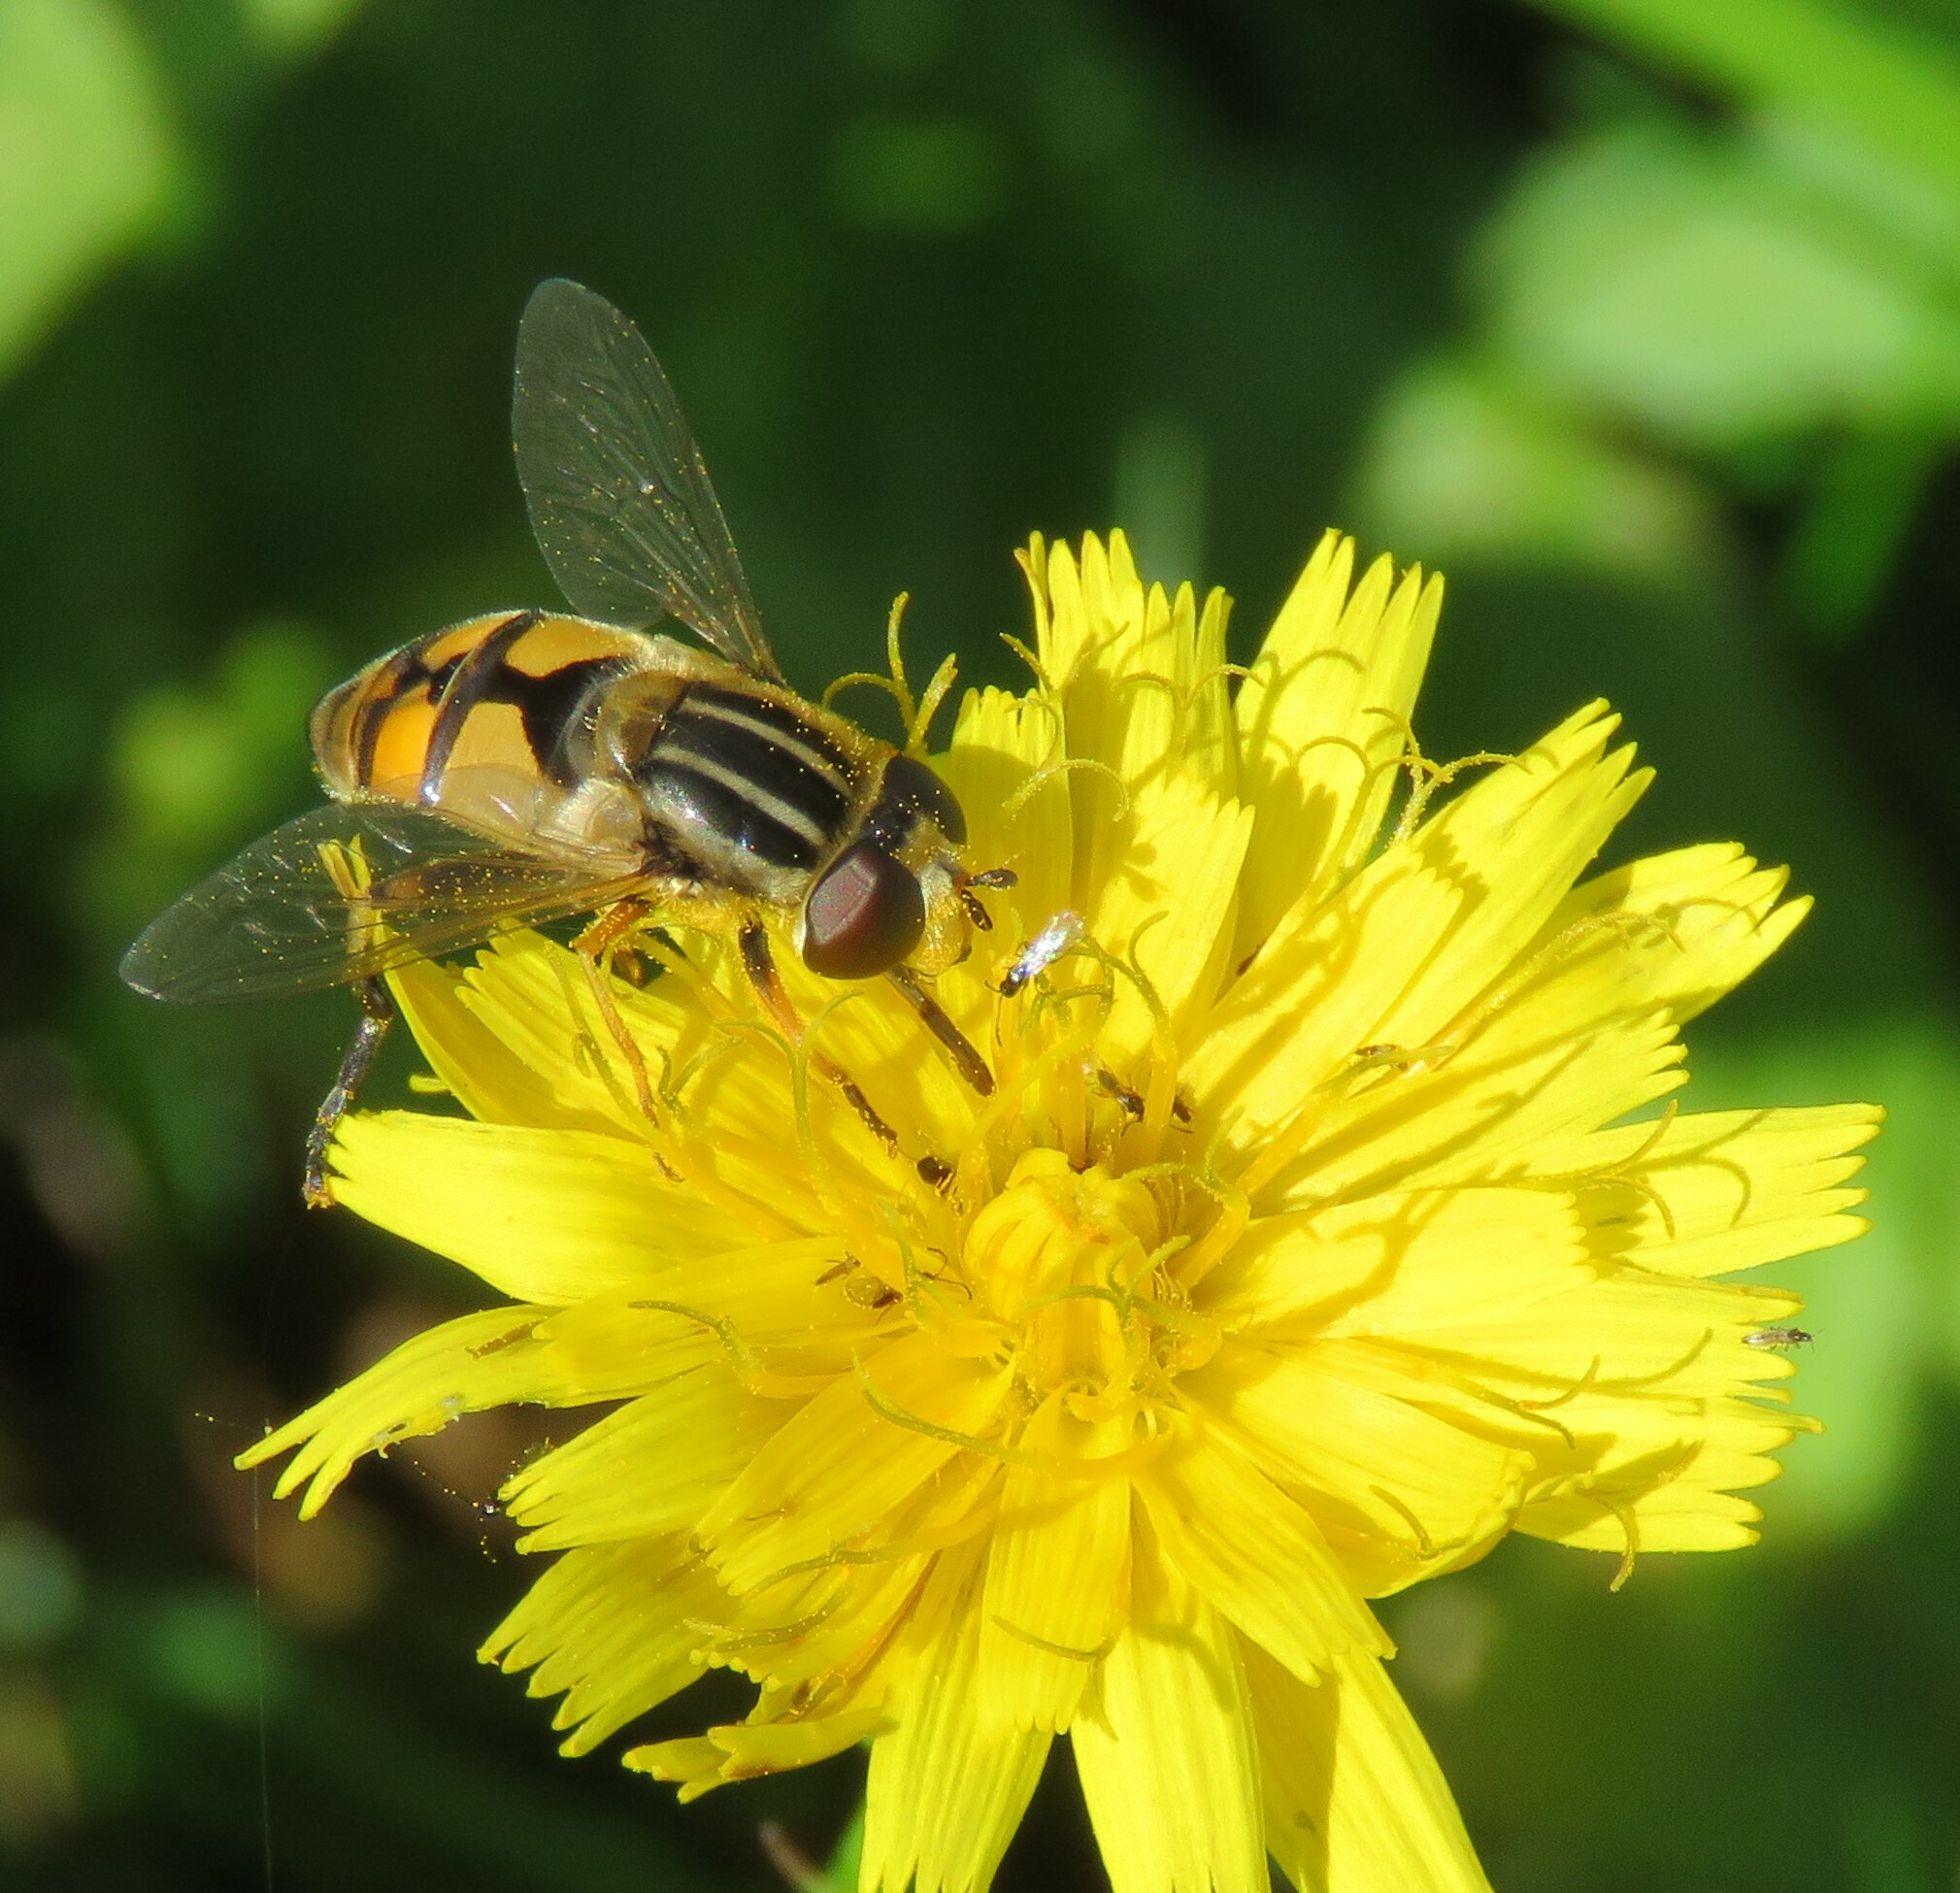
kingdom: Animalia
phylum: Arthropoda
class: Insecta
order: Diptera
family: Syrphidae
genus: Helophilus
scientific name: Helophilus latifrons
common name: Broad-headed marsh fly
